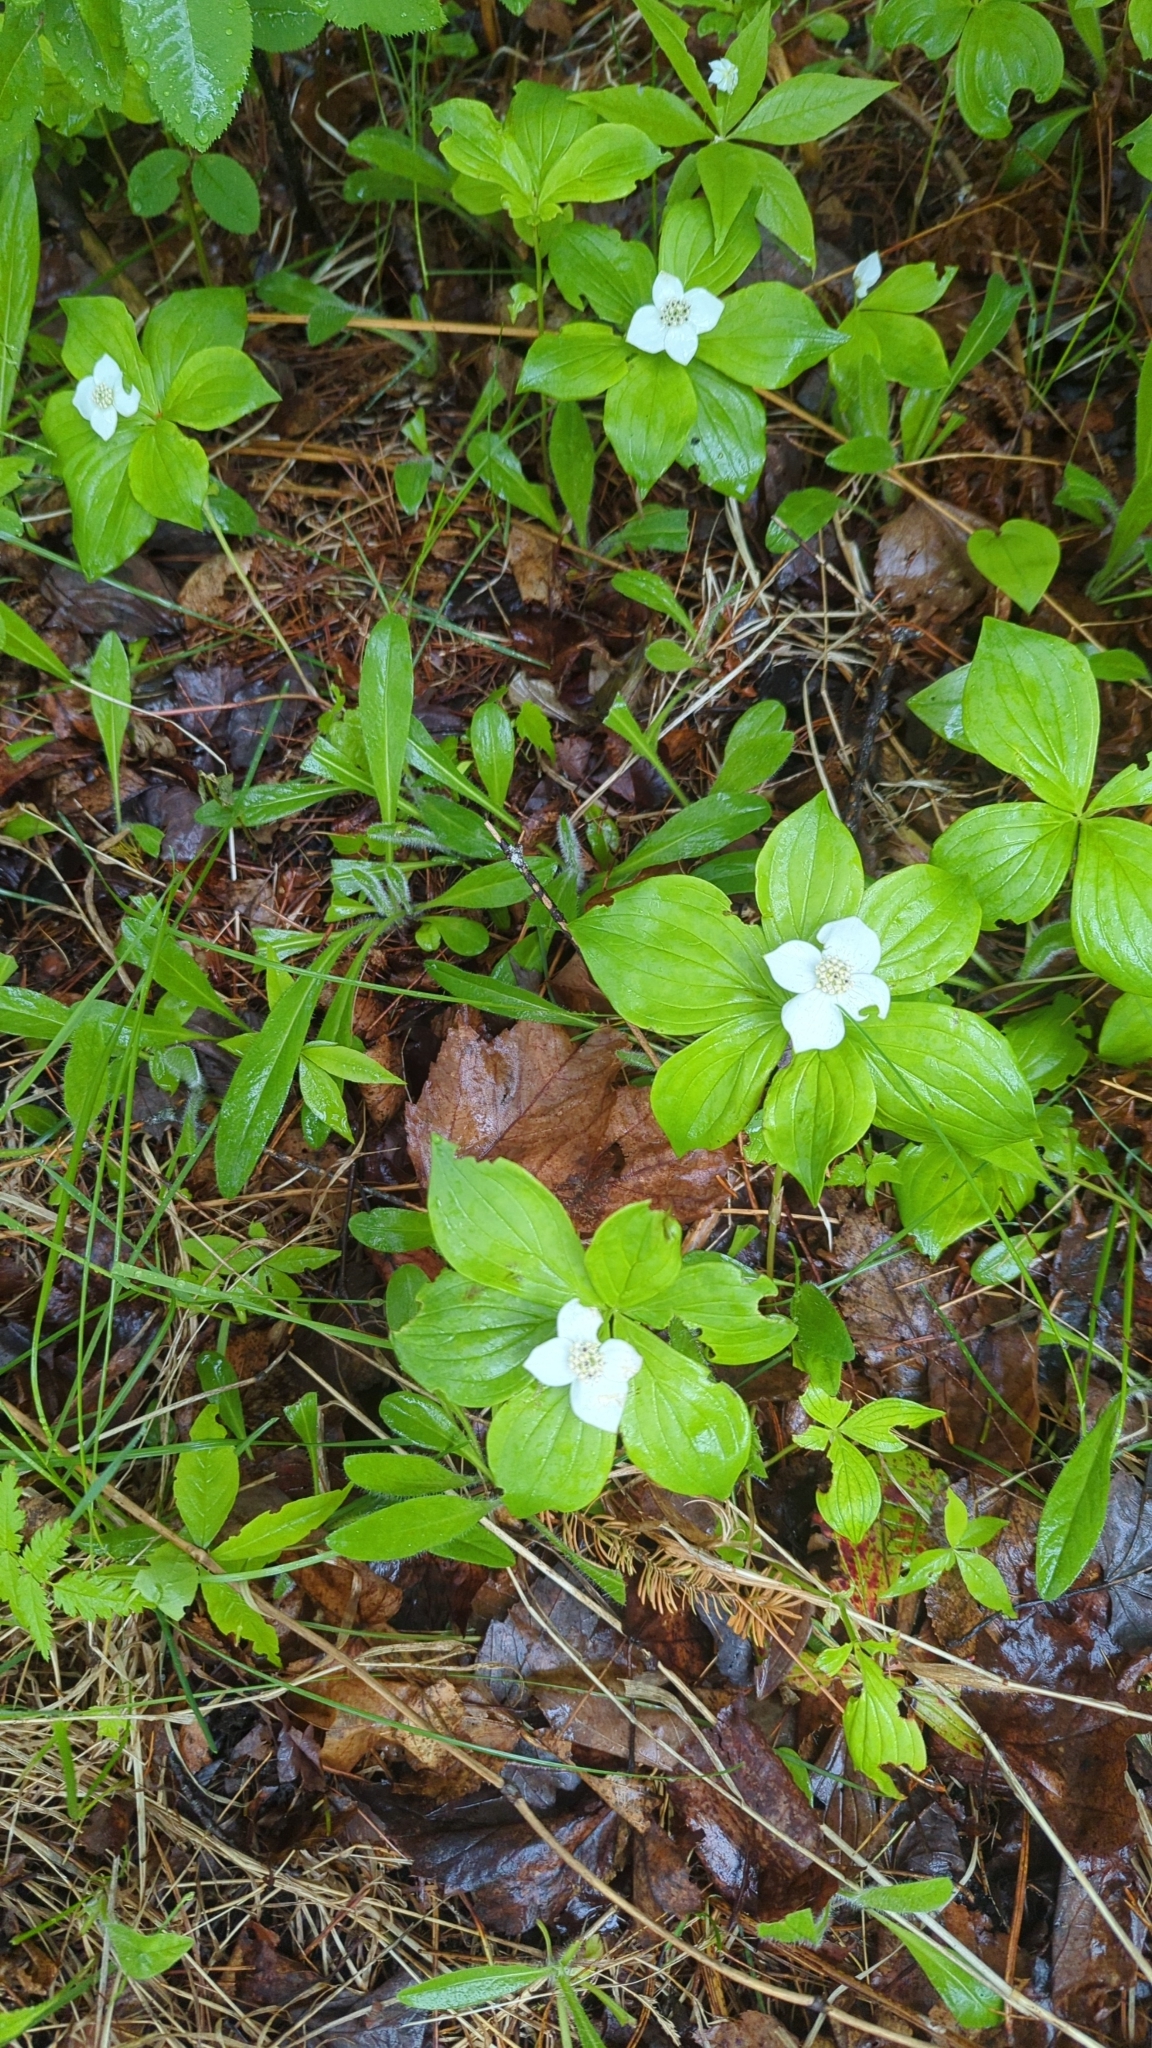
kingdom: Plantae
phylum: Tracheophyta
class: Magnoliopsida
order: Cornales
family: Cornaceae
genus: Cornus
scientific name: Cornus canadensis
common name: Creeping dogwood
